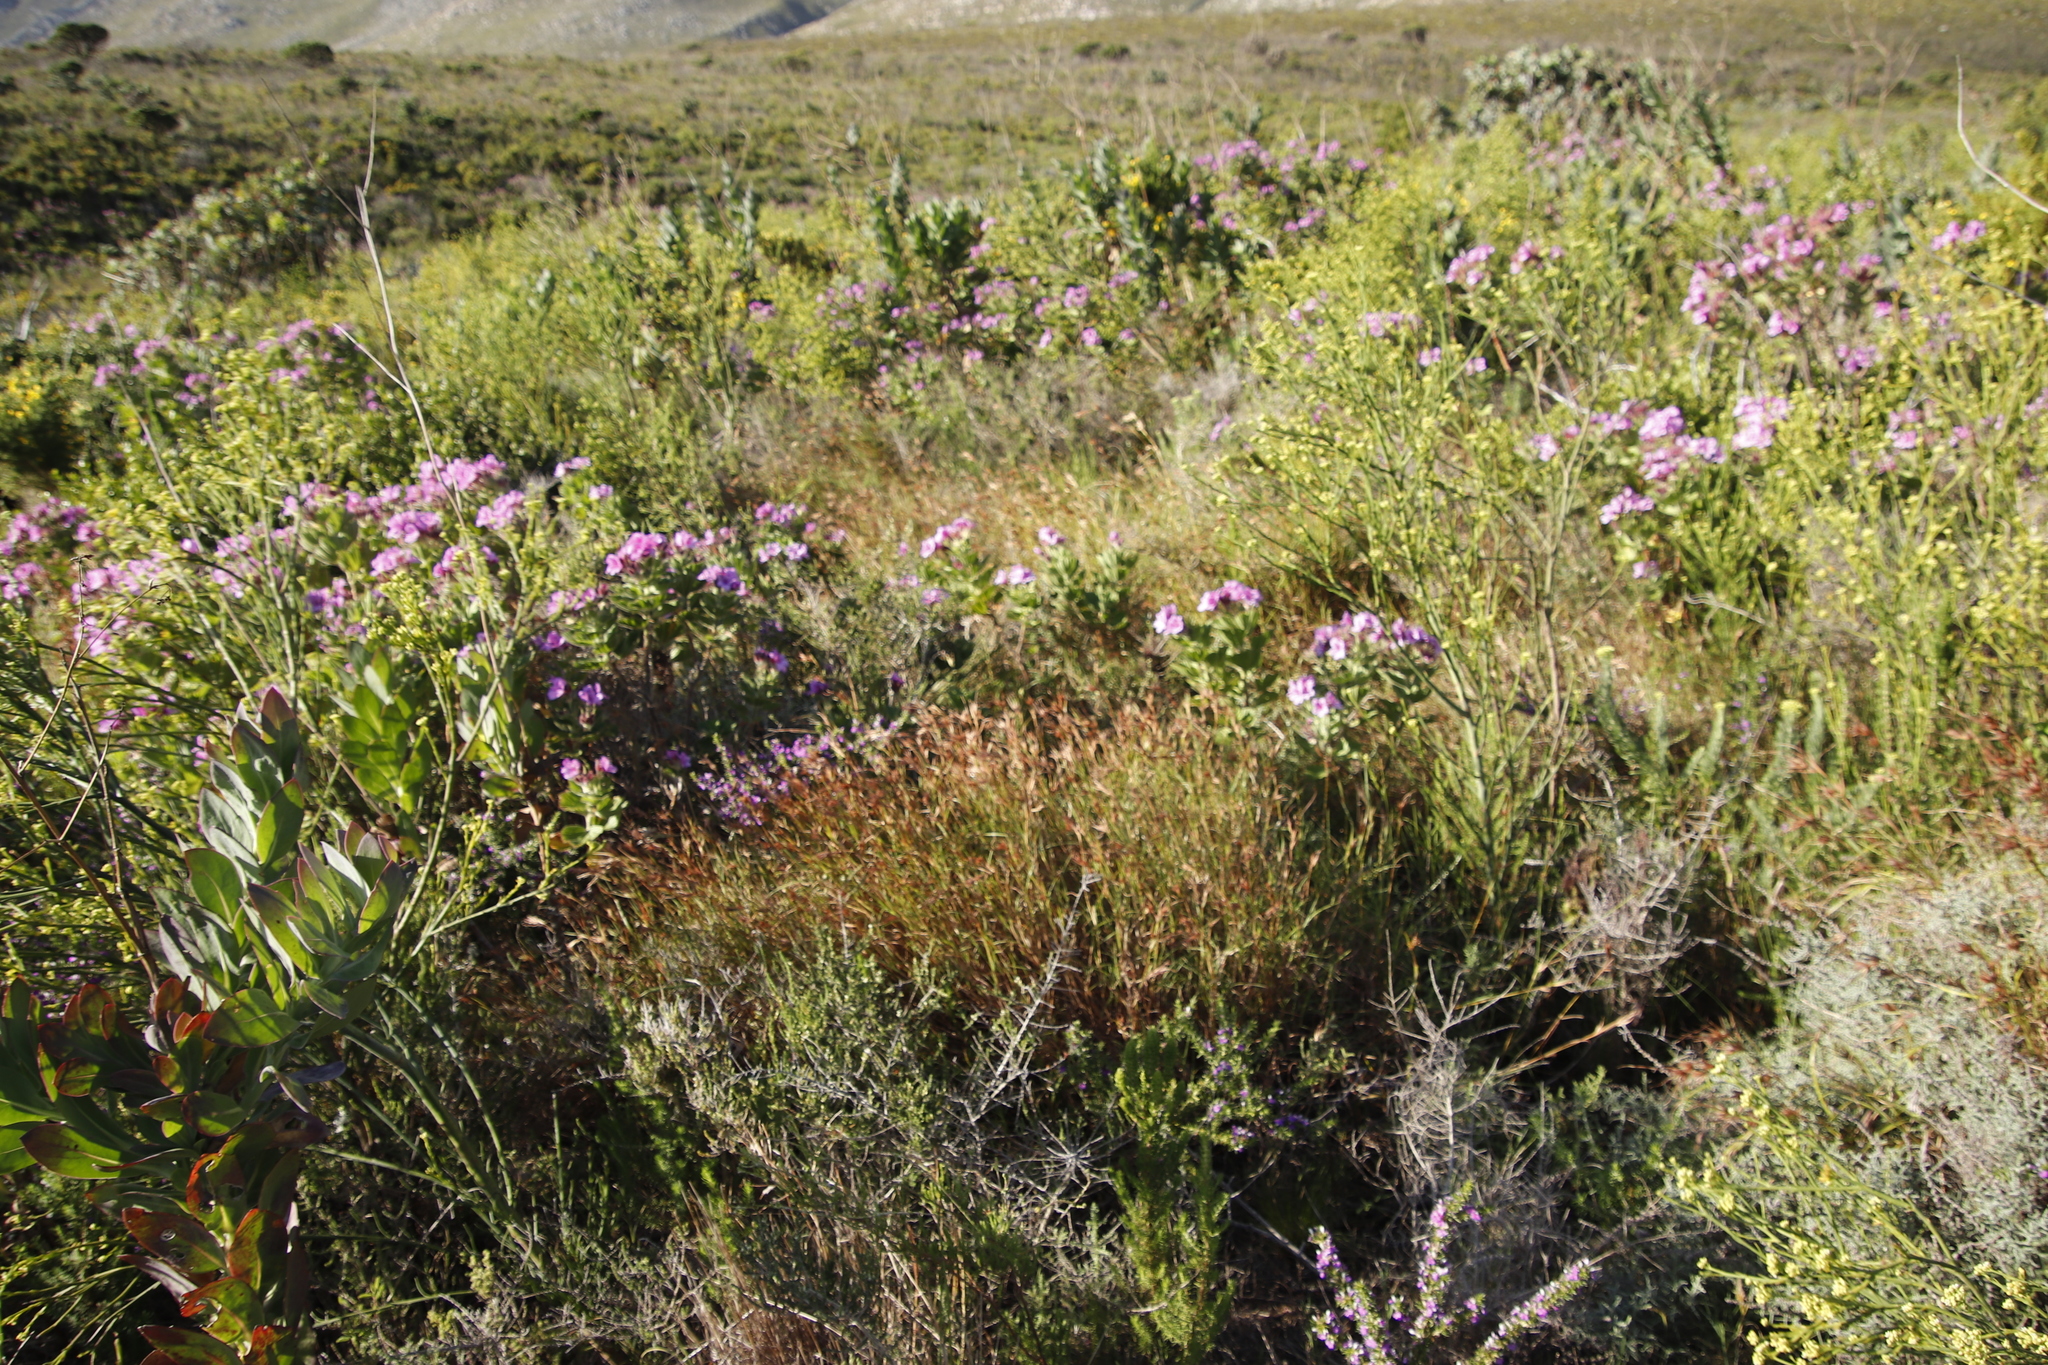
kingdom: Plantae
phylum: Tracheophyta
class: Liliopsida
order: Poales
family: Poaceae
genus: Themeda
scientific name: Themeda triandra
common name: Kangaroo grass
